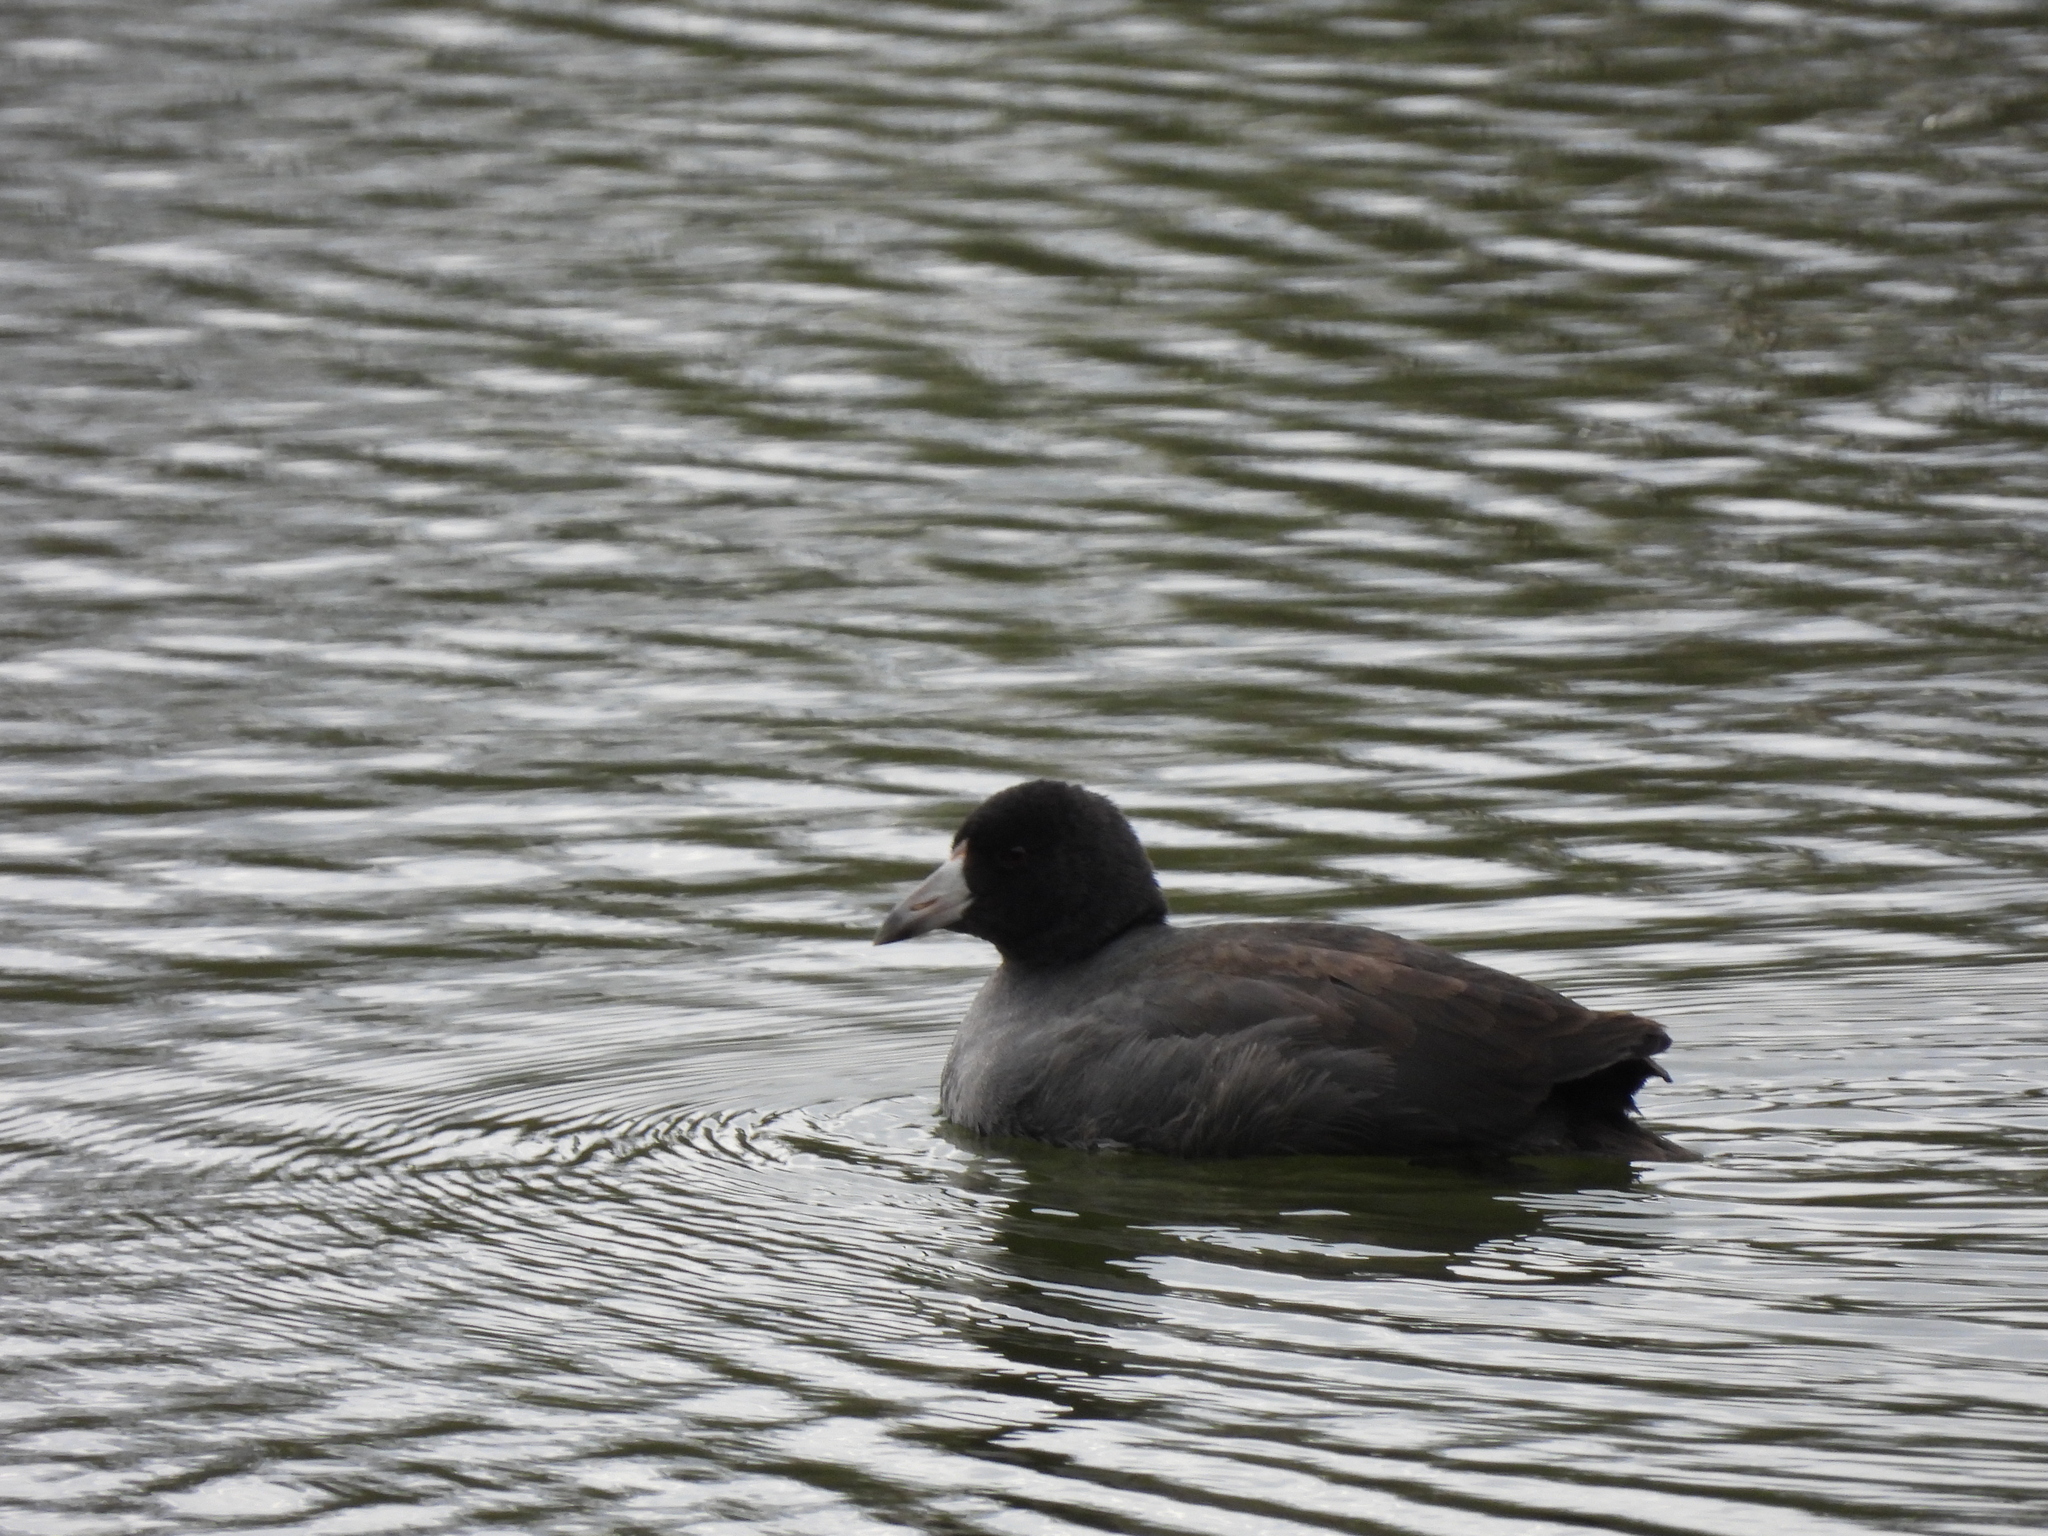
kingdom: Animalia
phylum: Chordata
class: Aves
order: Gruiformes
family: Rallidae
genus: Fulica
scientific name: Fulica americana
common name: American coot
